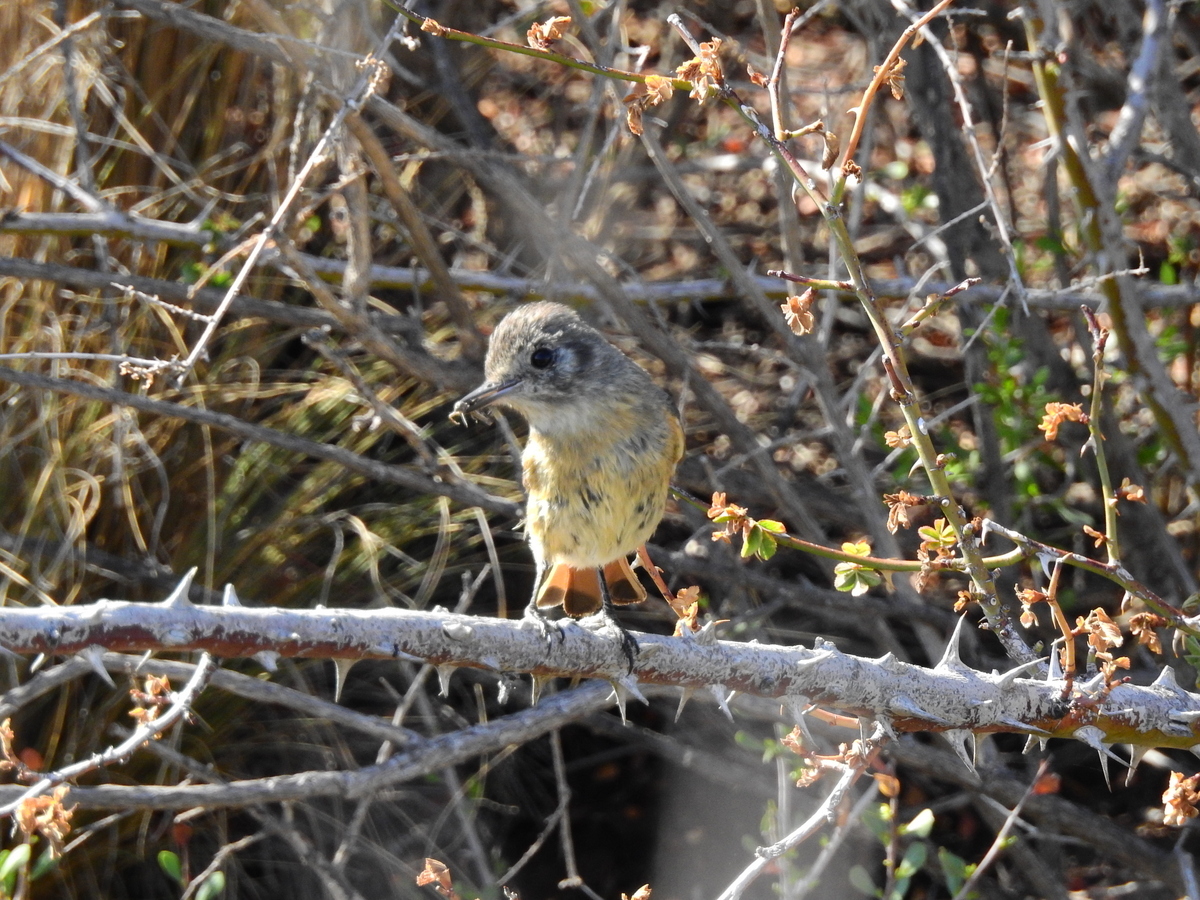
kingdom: Animalia
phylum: Chordata
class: Aves
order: Passeriformes
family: Tyrannidae
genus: Knipolegus
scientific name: Knipolegus aterrimus
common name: White-winged black tyrant
